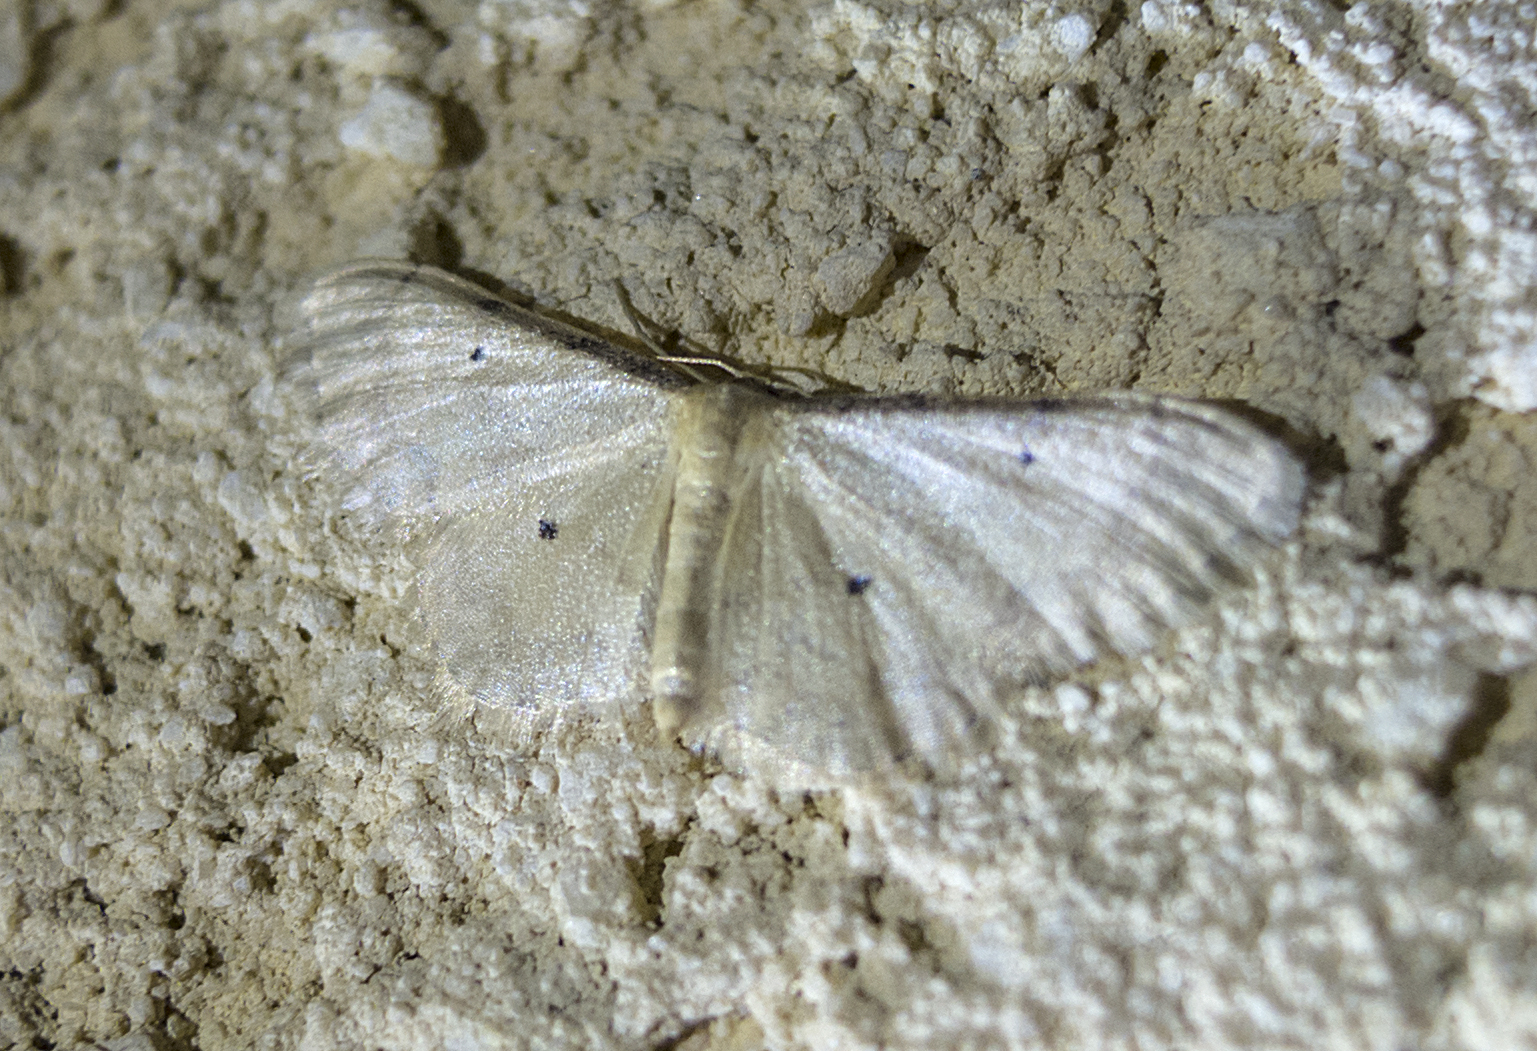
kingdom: Animalia
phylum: Arthropoda
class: Insecta
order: Lepidoptera
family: Geometridae
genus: Idaea
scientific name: Idaea politaria
